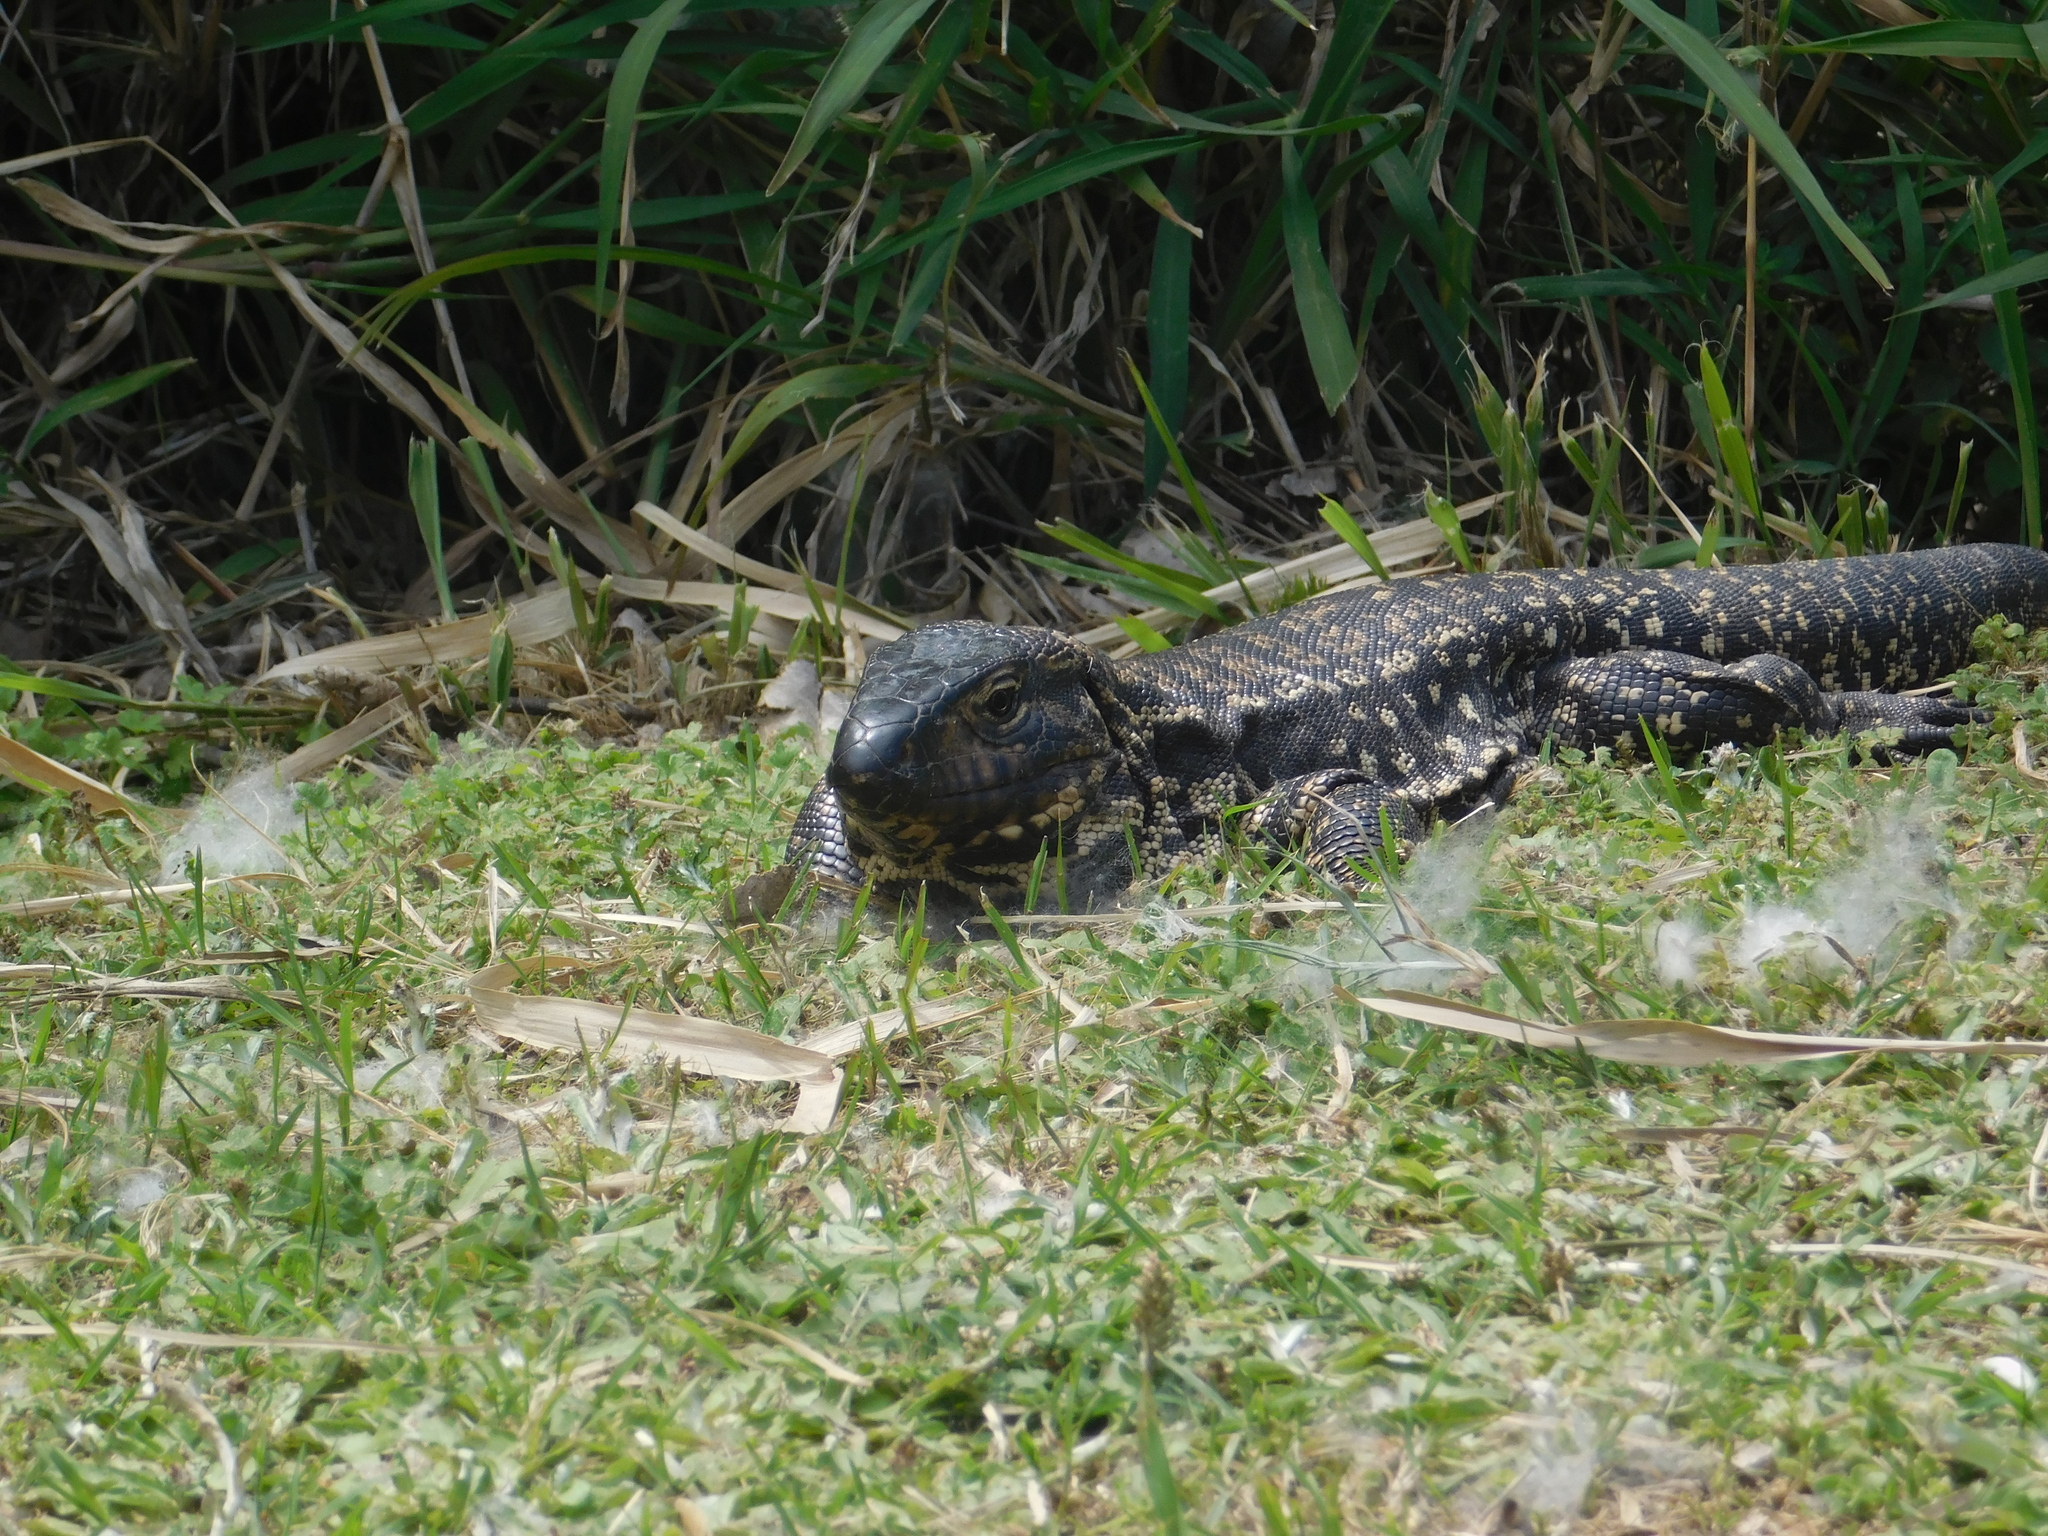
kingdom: Animalia
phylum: Chordata
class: Squamata
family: Teiidae
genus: Salvator
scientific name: Salvator merianae
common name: Argentine black and white tegu
